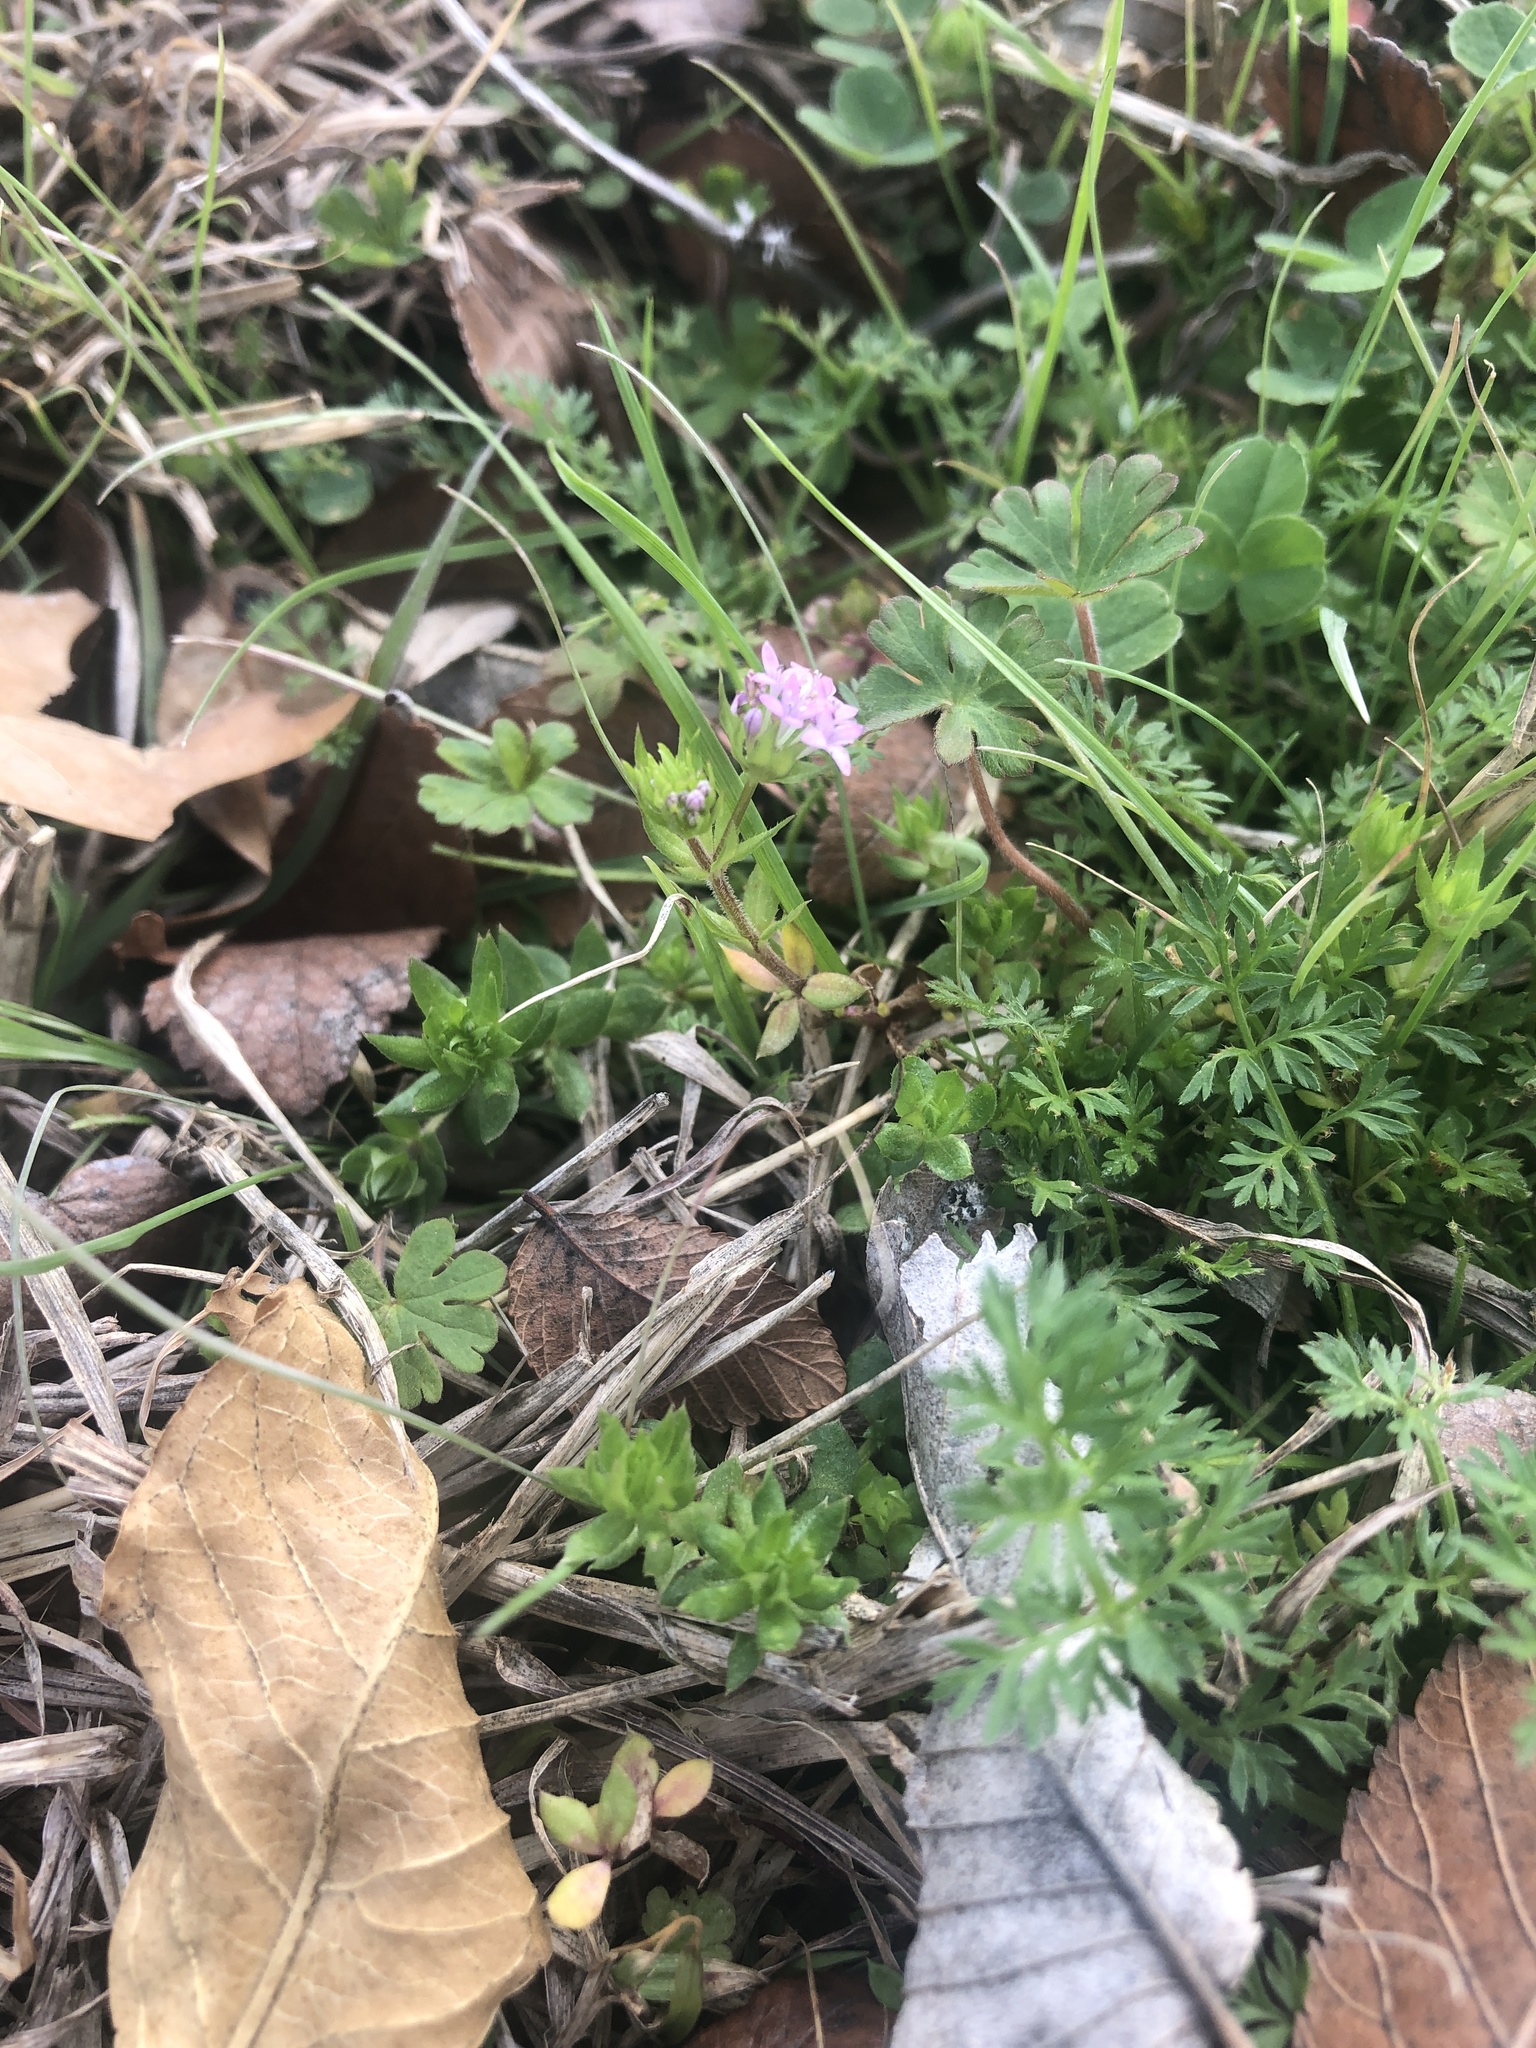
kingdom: Plantae
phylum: Tracheophyta
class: Magnoliopsida
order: Gentianales
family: Rubiaceae
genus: Sherardia
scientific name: Sherardia arvensis
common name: Field madder
